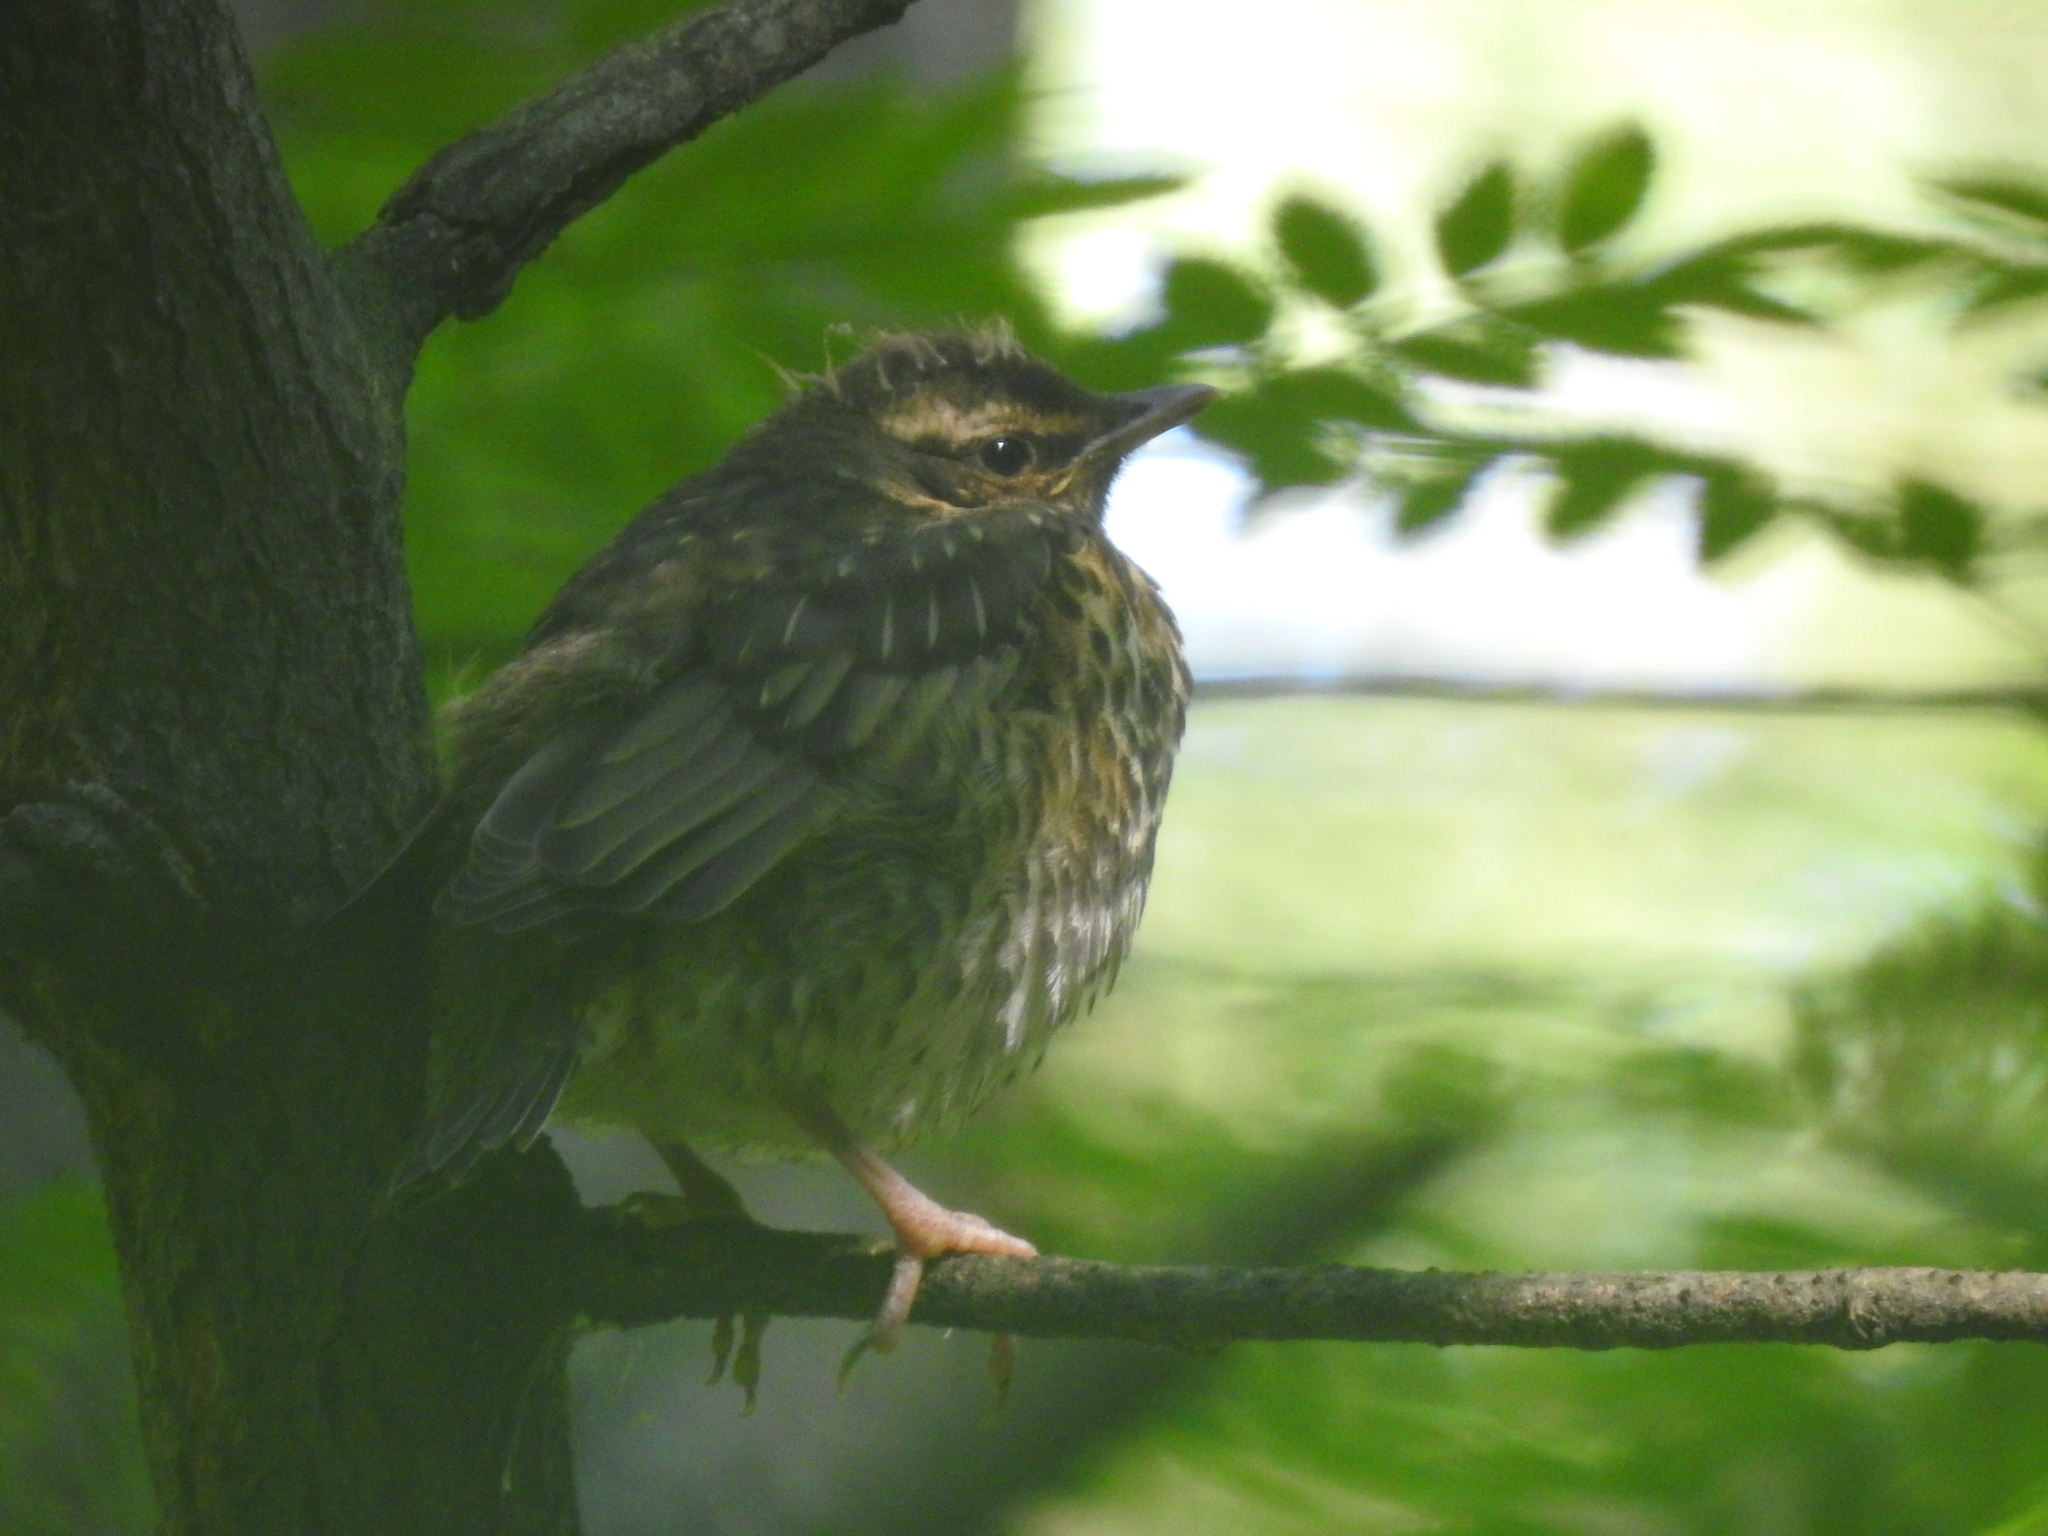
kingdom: Animalia
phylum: Chordata
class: Aves
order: Passeriformes
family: Turdidae
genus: Turdus
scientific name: Turdus iliacus
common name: Redwing
